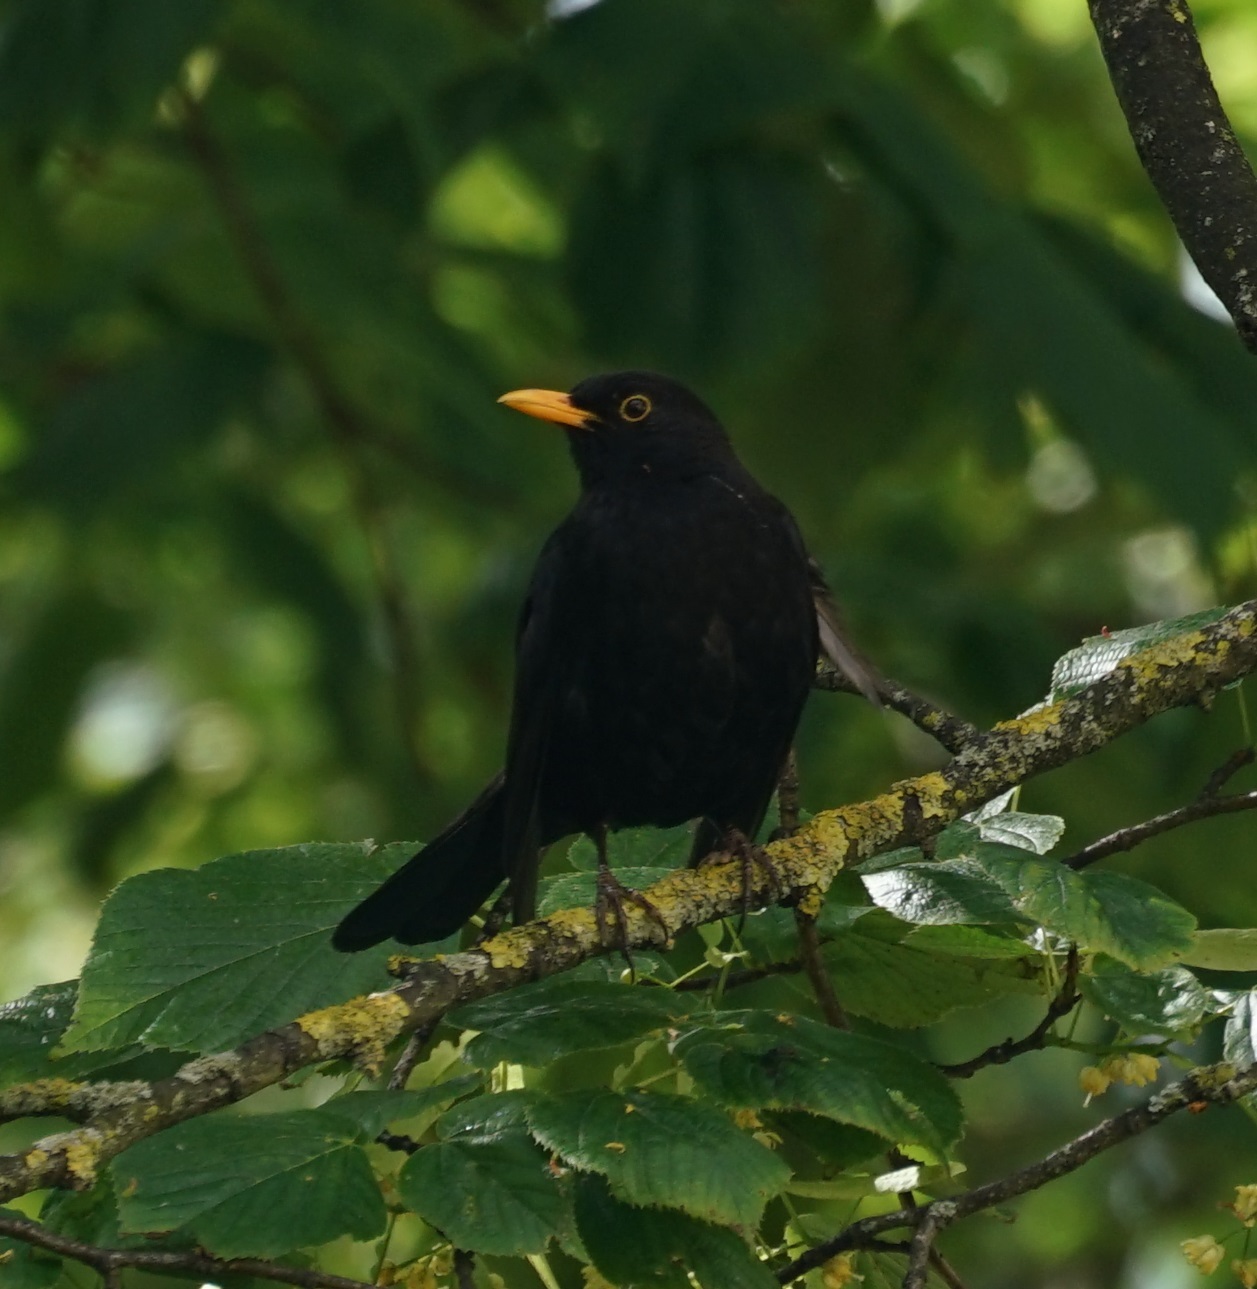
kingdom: Animalia
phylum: Chordata
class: Aves
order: Passeriformes
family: Turdidae
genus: Turdus
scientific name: Turdus merula
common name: Common blackbird
